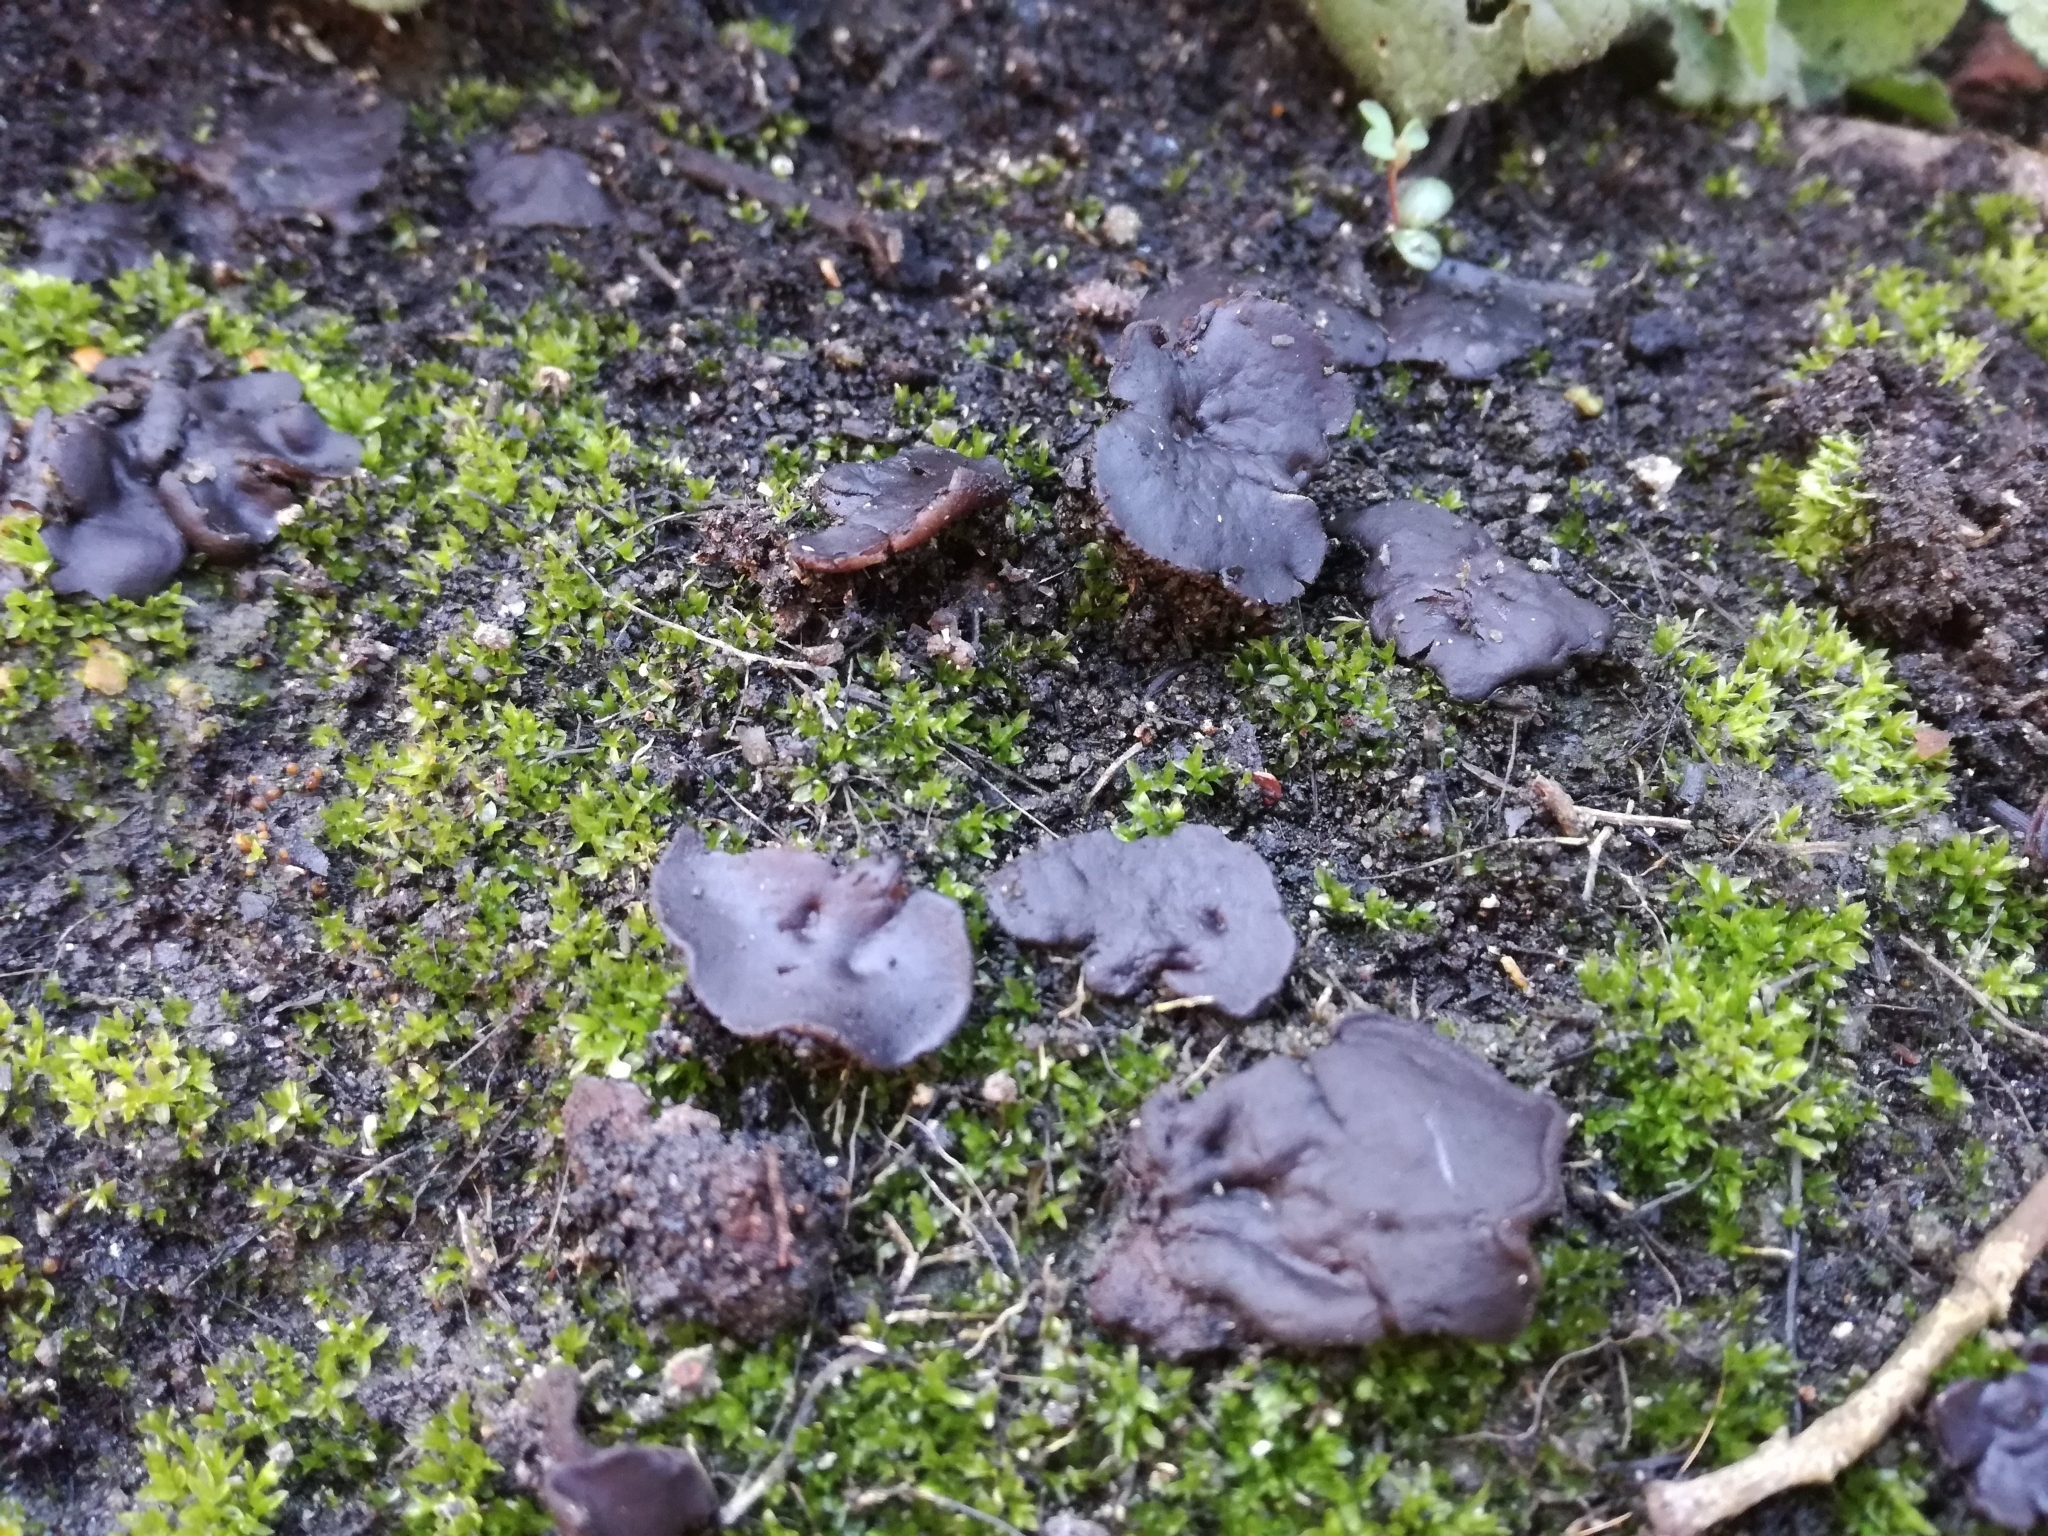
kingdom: Fungi
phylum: Ascomycota
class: Pezizomycetes
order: Pezizales
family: Pyronemataceae
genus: Plicaria
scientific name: Plicaria endocarpoides
